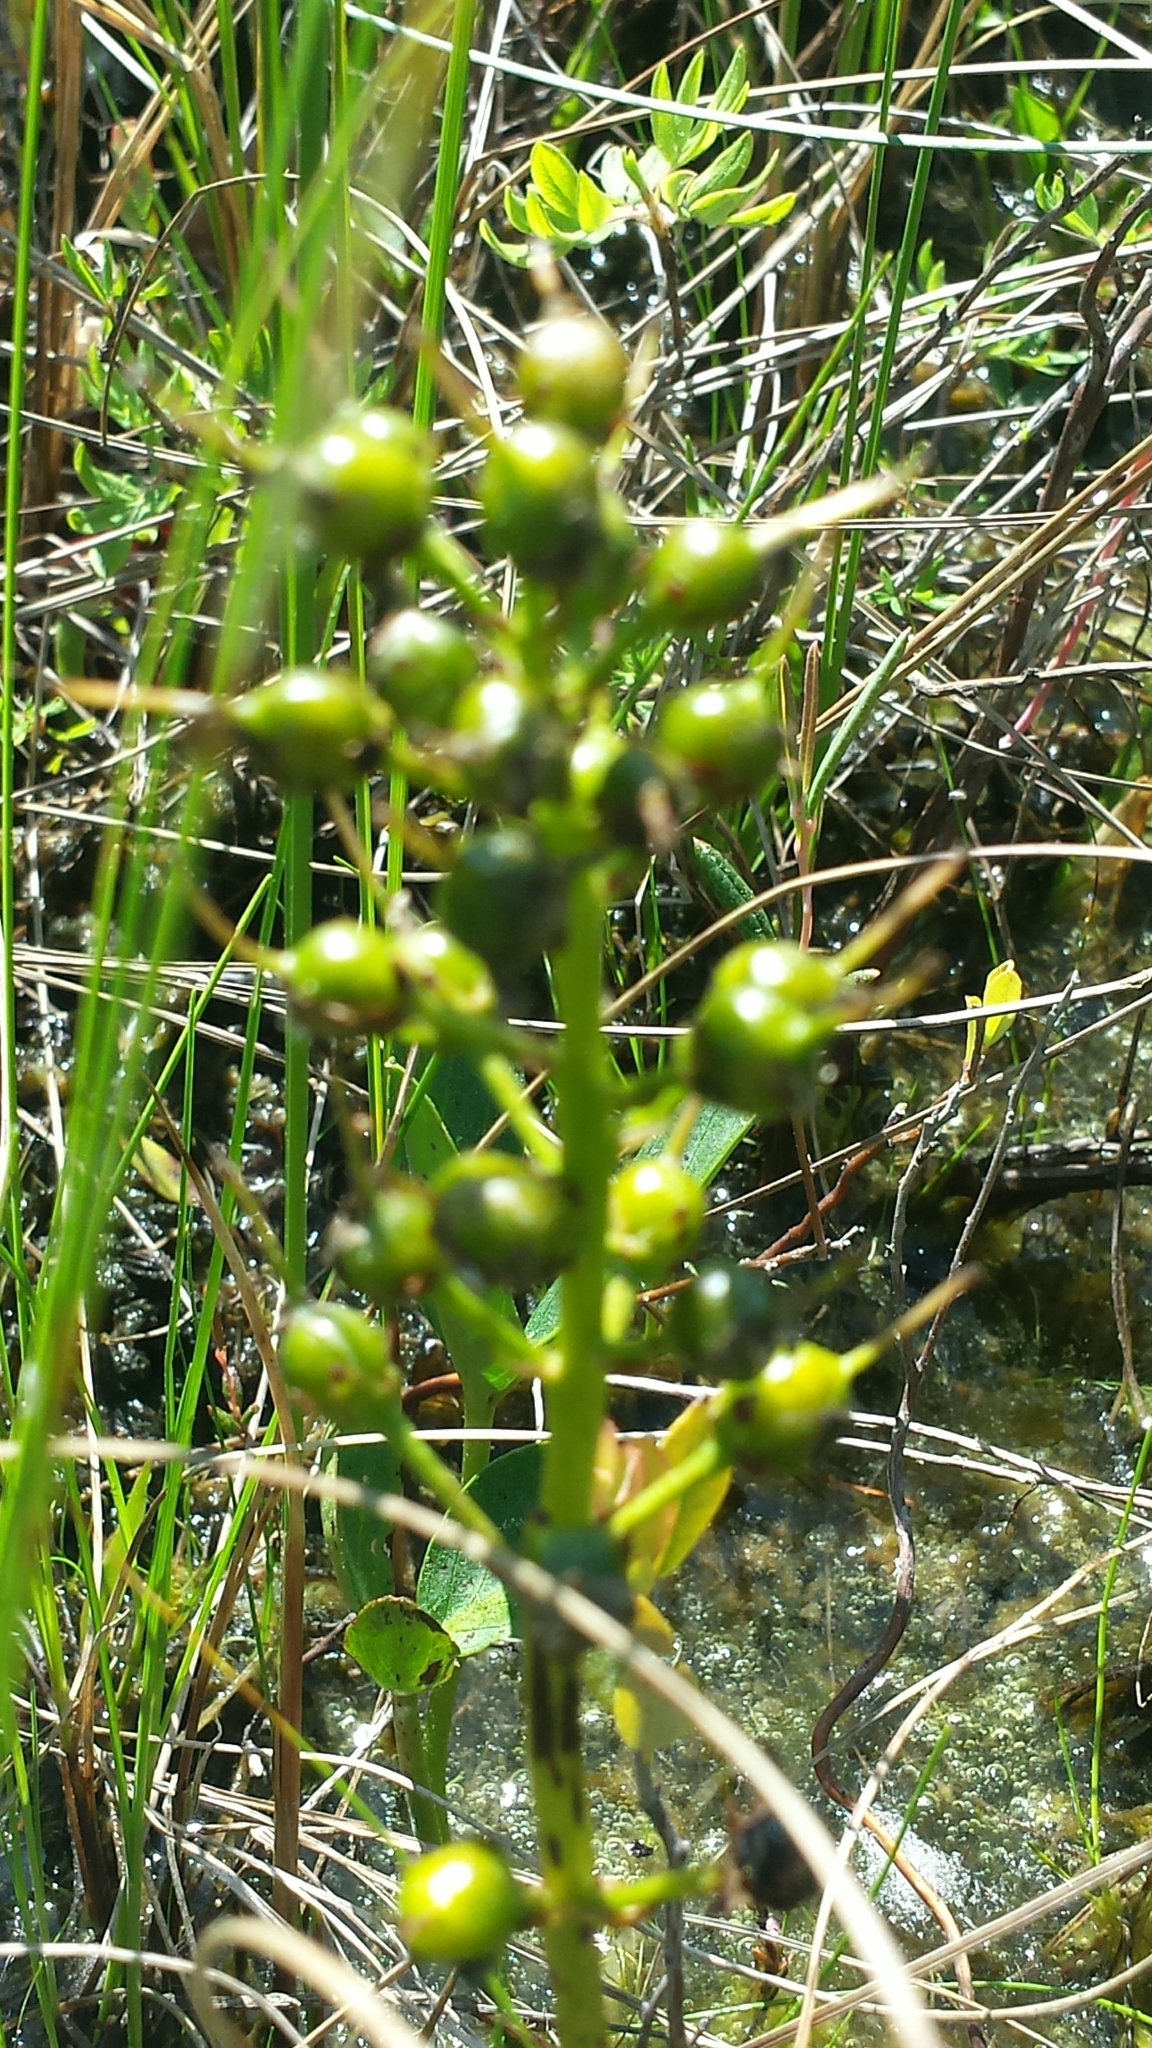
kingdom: Plantae
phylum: Tracheophyta
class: Magnoliopsida
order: Asterales
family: Menyanthaceae
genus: Menyanthes
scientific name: Menyanthes trifoliata
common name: Bogbean
